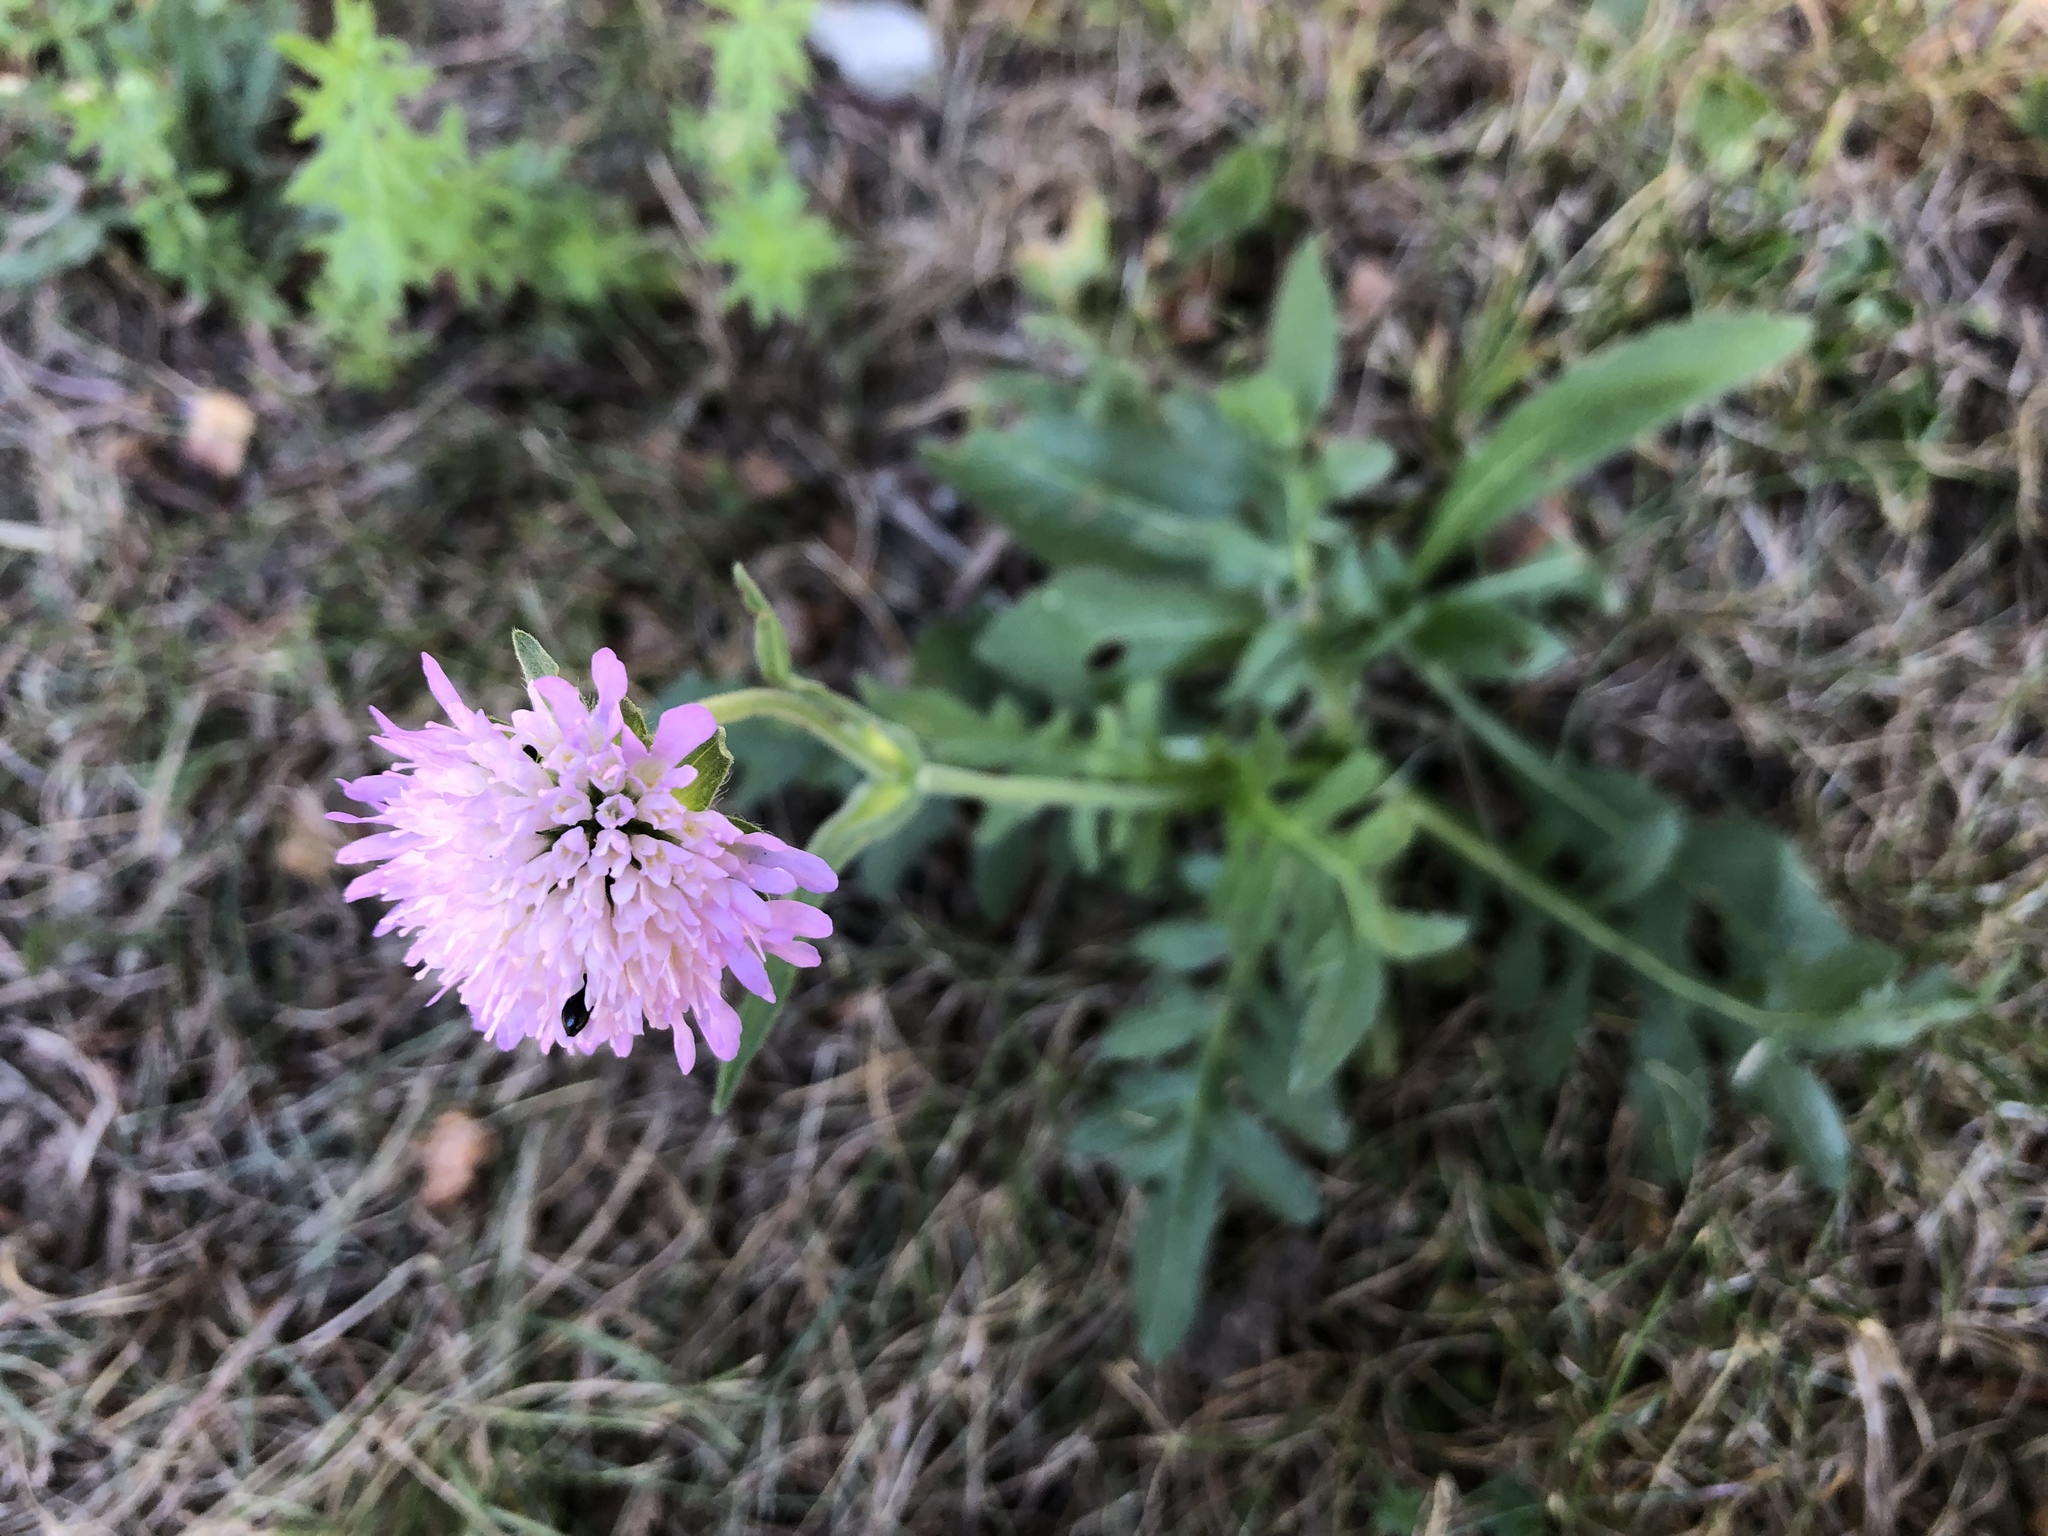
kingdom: Plantae
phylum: Tracheophyta
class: Magnoliopsida
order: Dipsacales
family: Caprifoliaceae
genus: Knautia
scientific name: Knautia arvensis
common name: Field scabiosa
